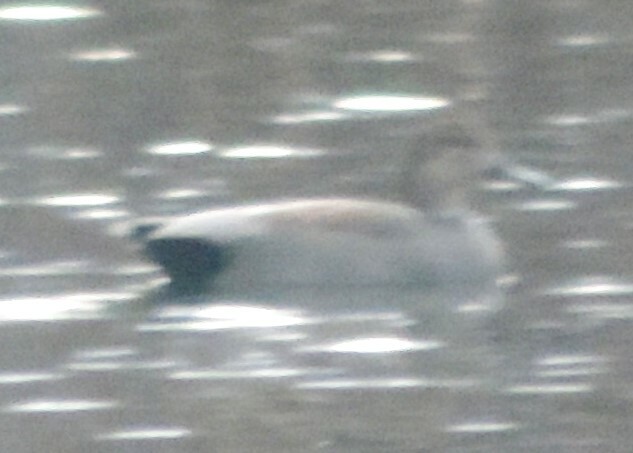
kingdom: Animalia
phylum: Chordata
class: Aves
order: Anseriformes
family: Anatidae
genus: Mareca
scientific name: Mareca strepera
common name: Gadwall
